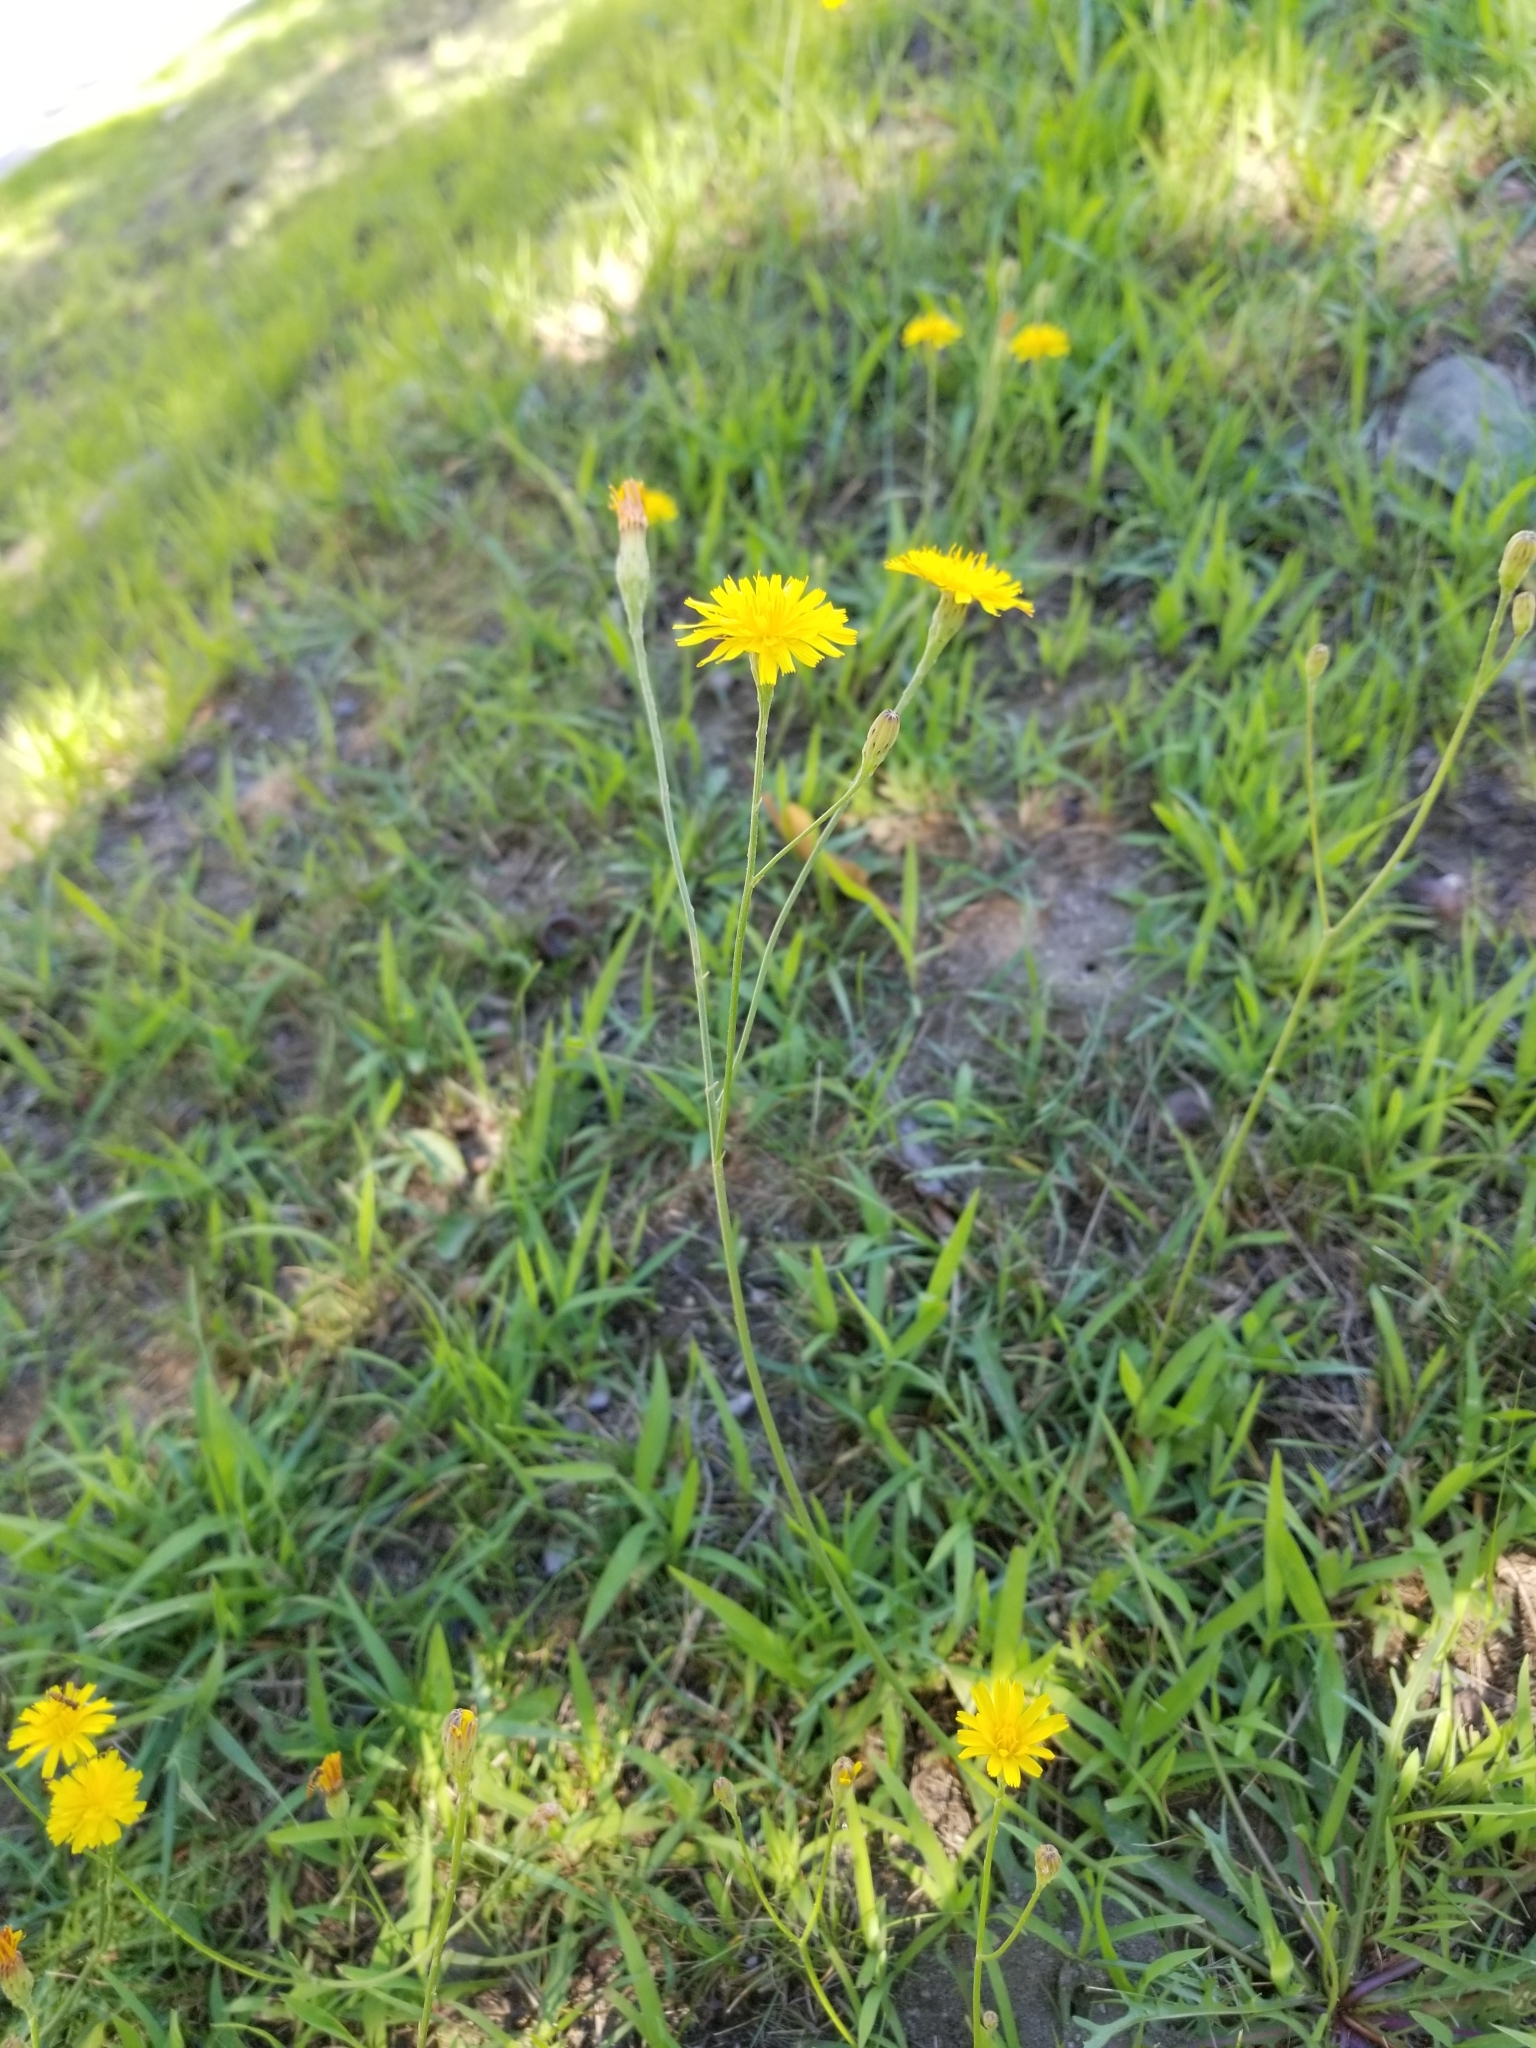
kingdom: Plantae
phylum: Tracheophyta
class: Magnoliopsida
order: Asterales
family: Asteraceae
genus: Scorzoneroides
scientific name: Scorzoneroides autumnalis
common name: Autumn hawkbit
